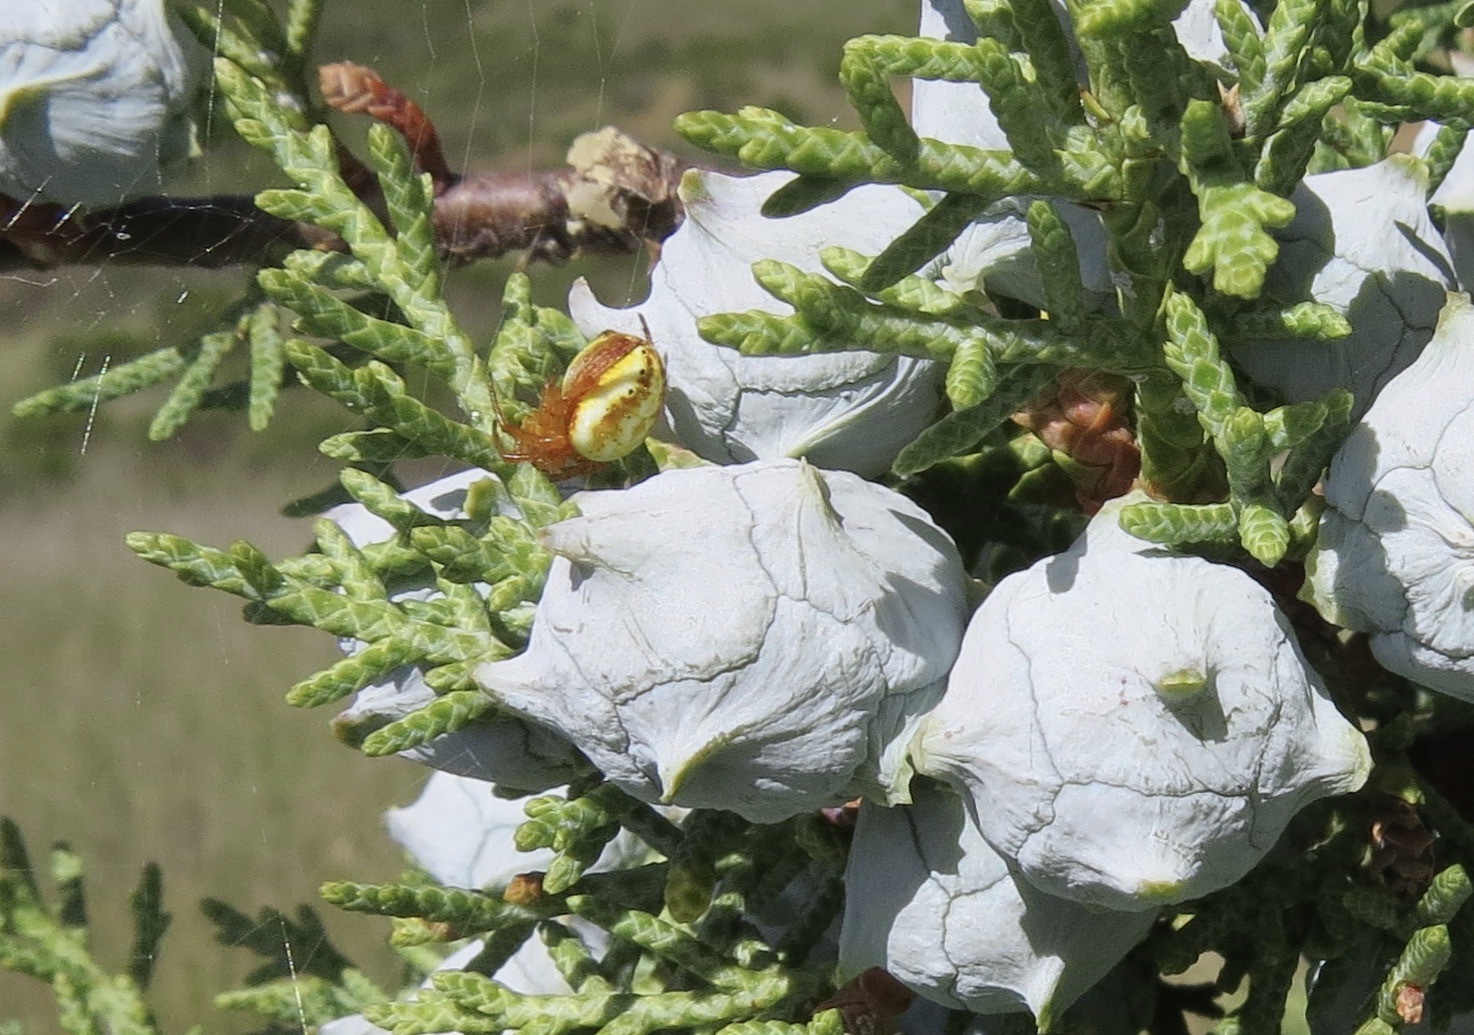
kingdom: Animalia
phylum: Arthropoda
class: Arachnida
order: Araneae
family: Araneidae
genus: Araniella
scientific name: Araniella displicata
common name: Sixspotted orb weaver
